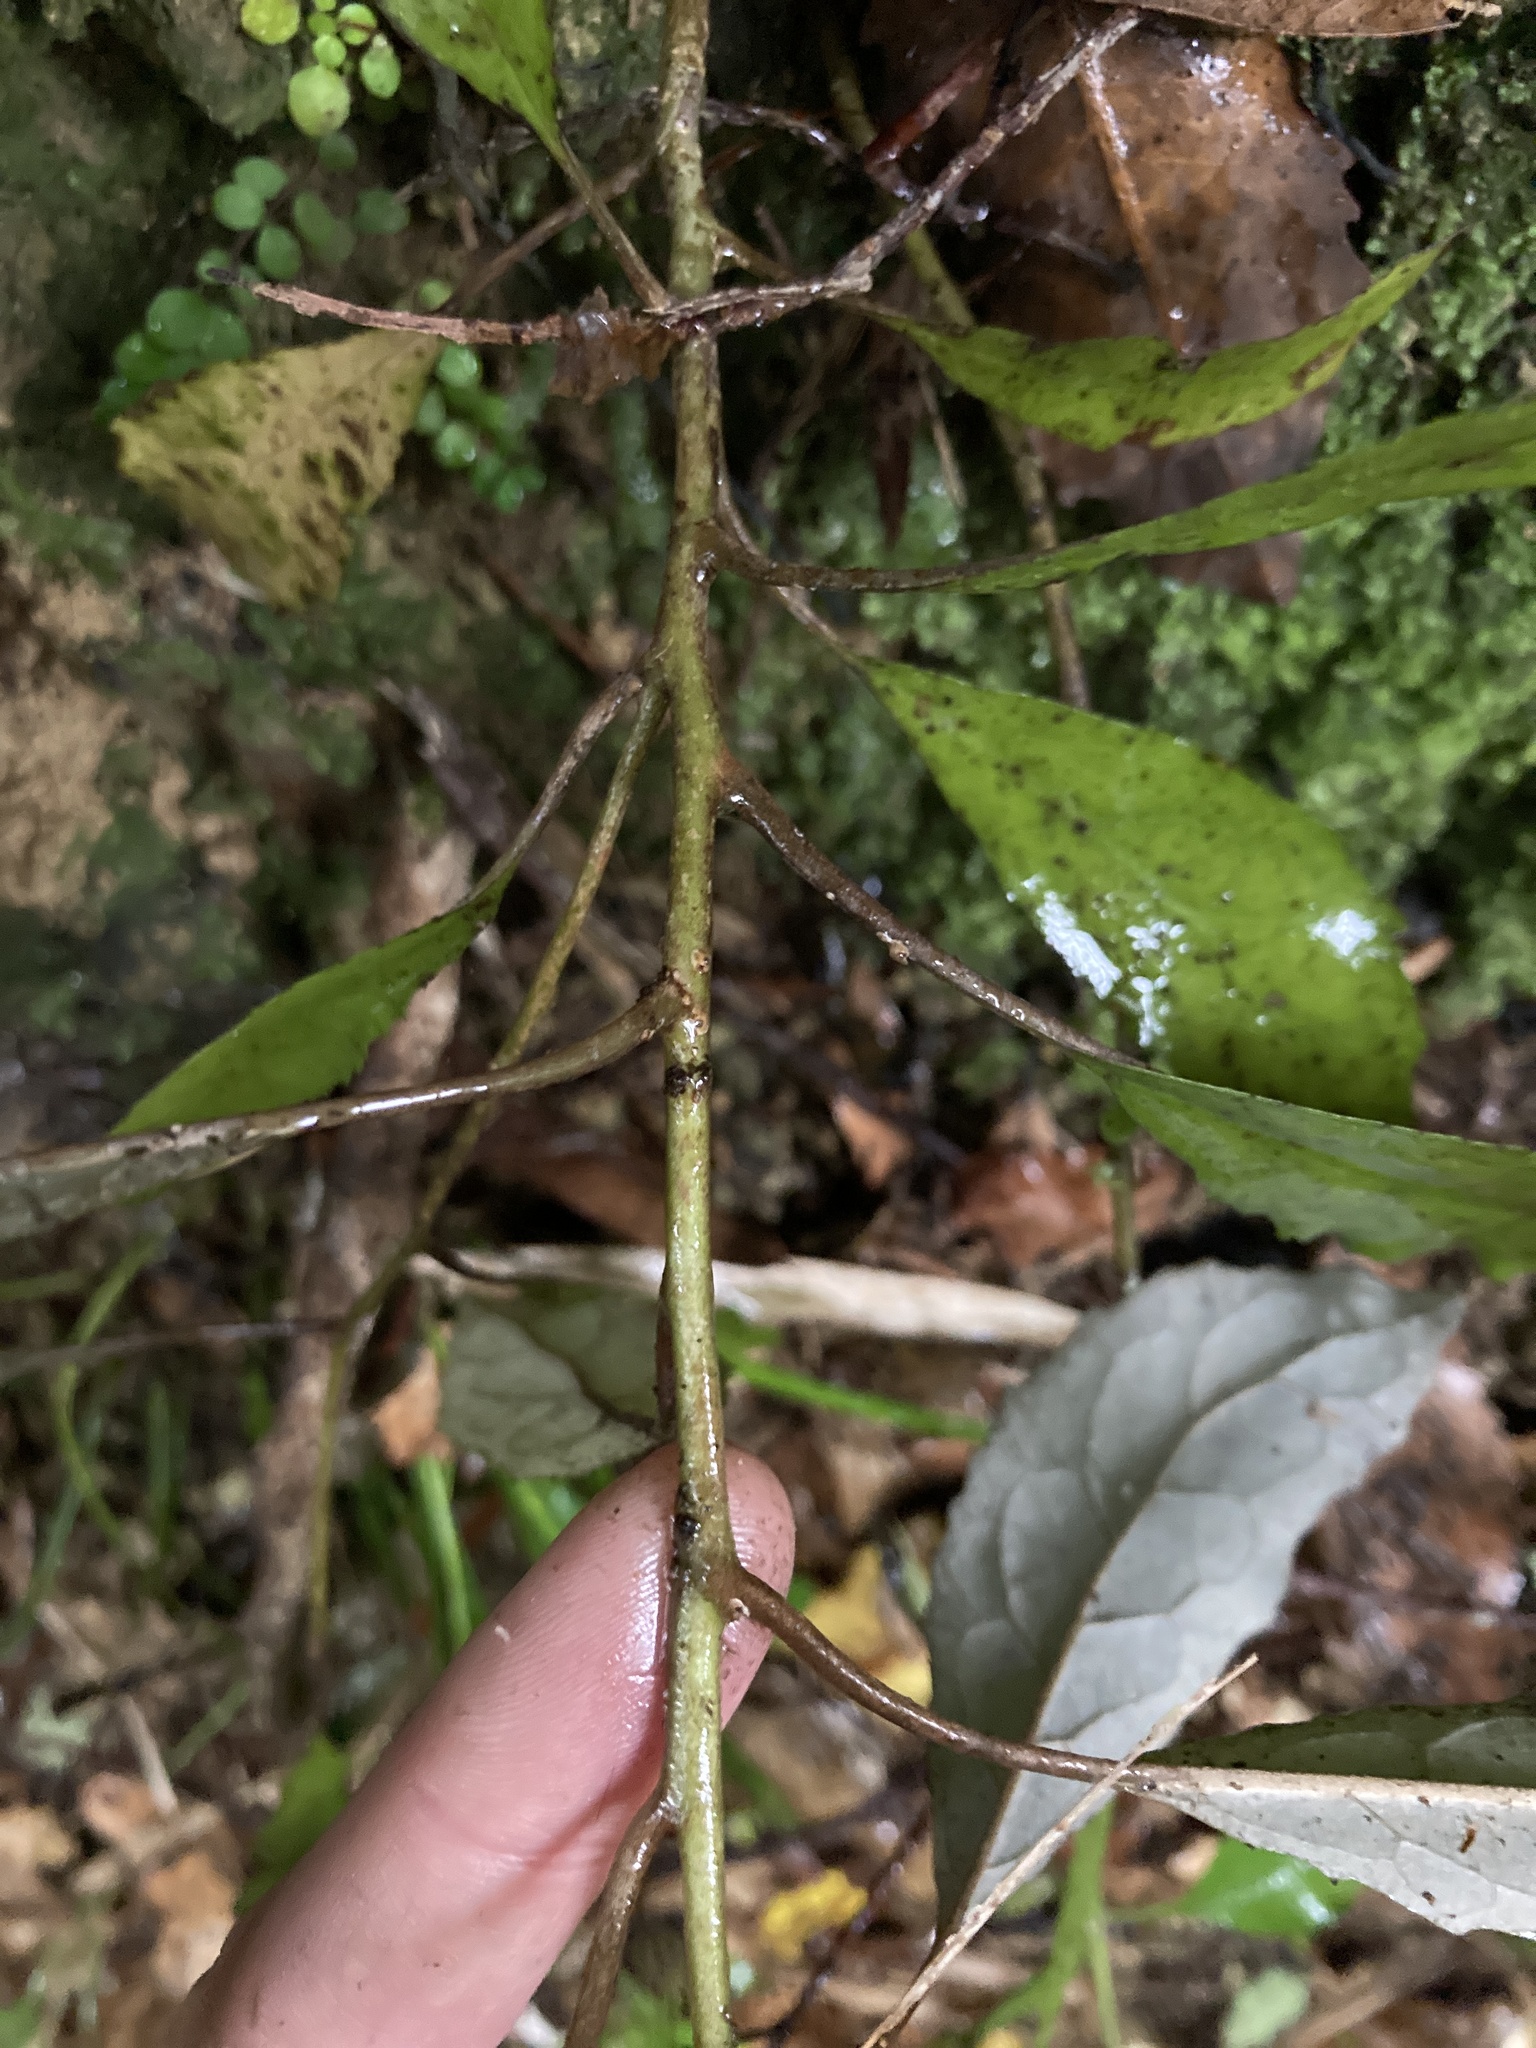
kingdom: Plantae
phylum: Tracheophyta
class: Magnoliopsida
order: Asterales
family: Asteraceae
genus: Olearia
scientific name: Olearia rani
